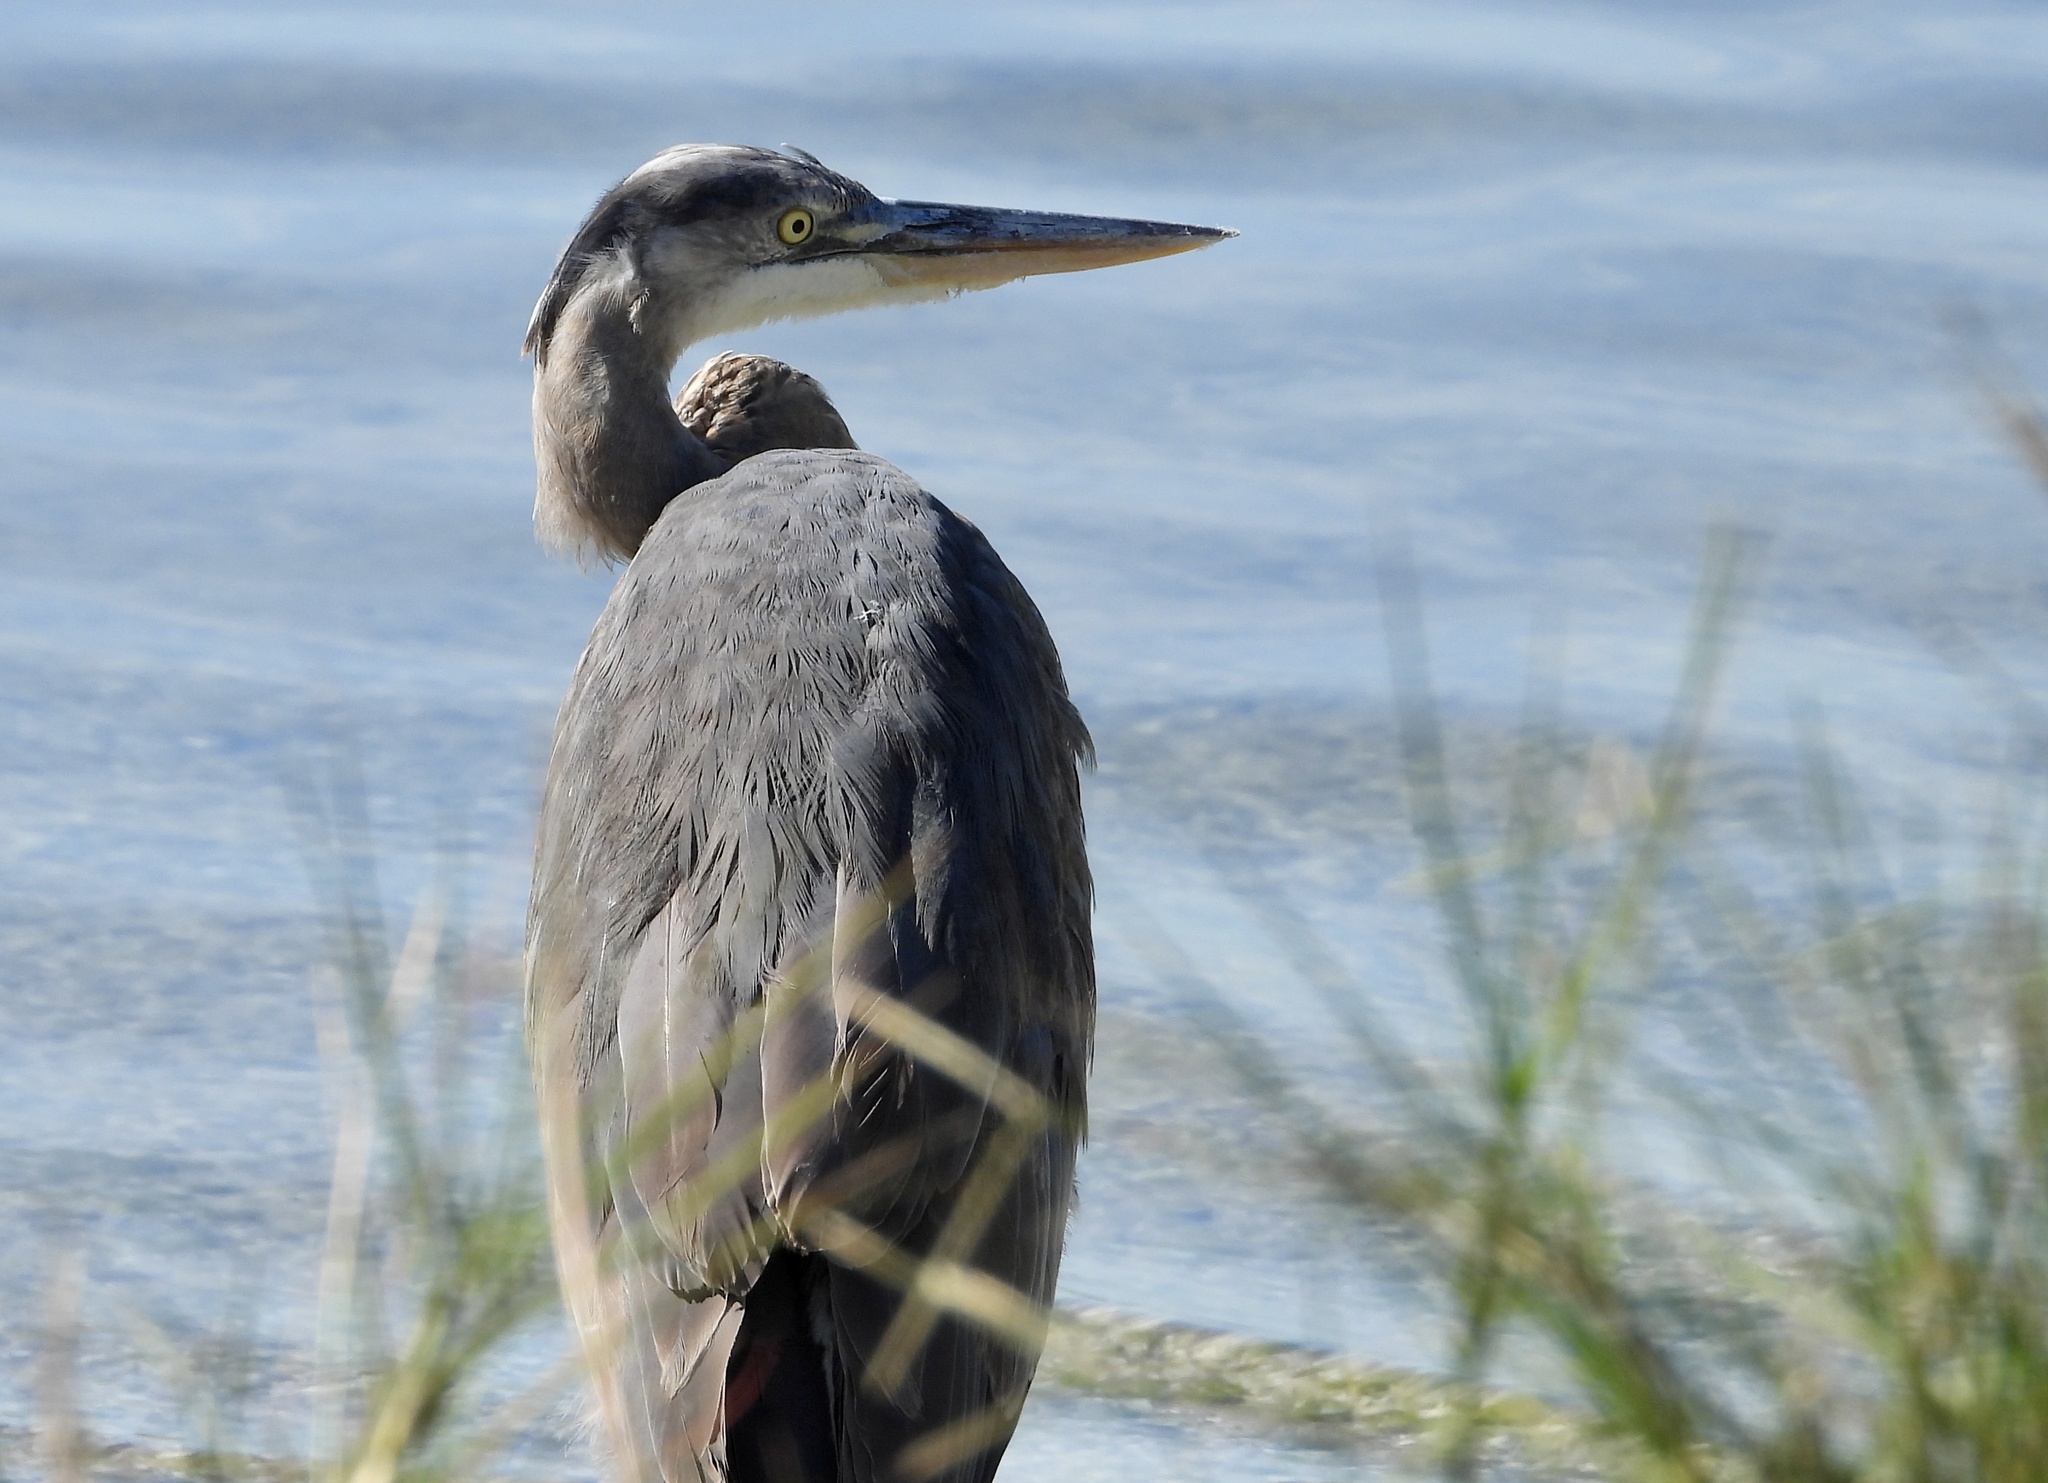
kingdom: Animalia
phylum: Chordata
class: Aves
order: Pelecaniformes
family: Ardeidae
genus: Ardea
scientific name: Ardea herodias
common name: Great blue heron
